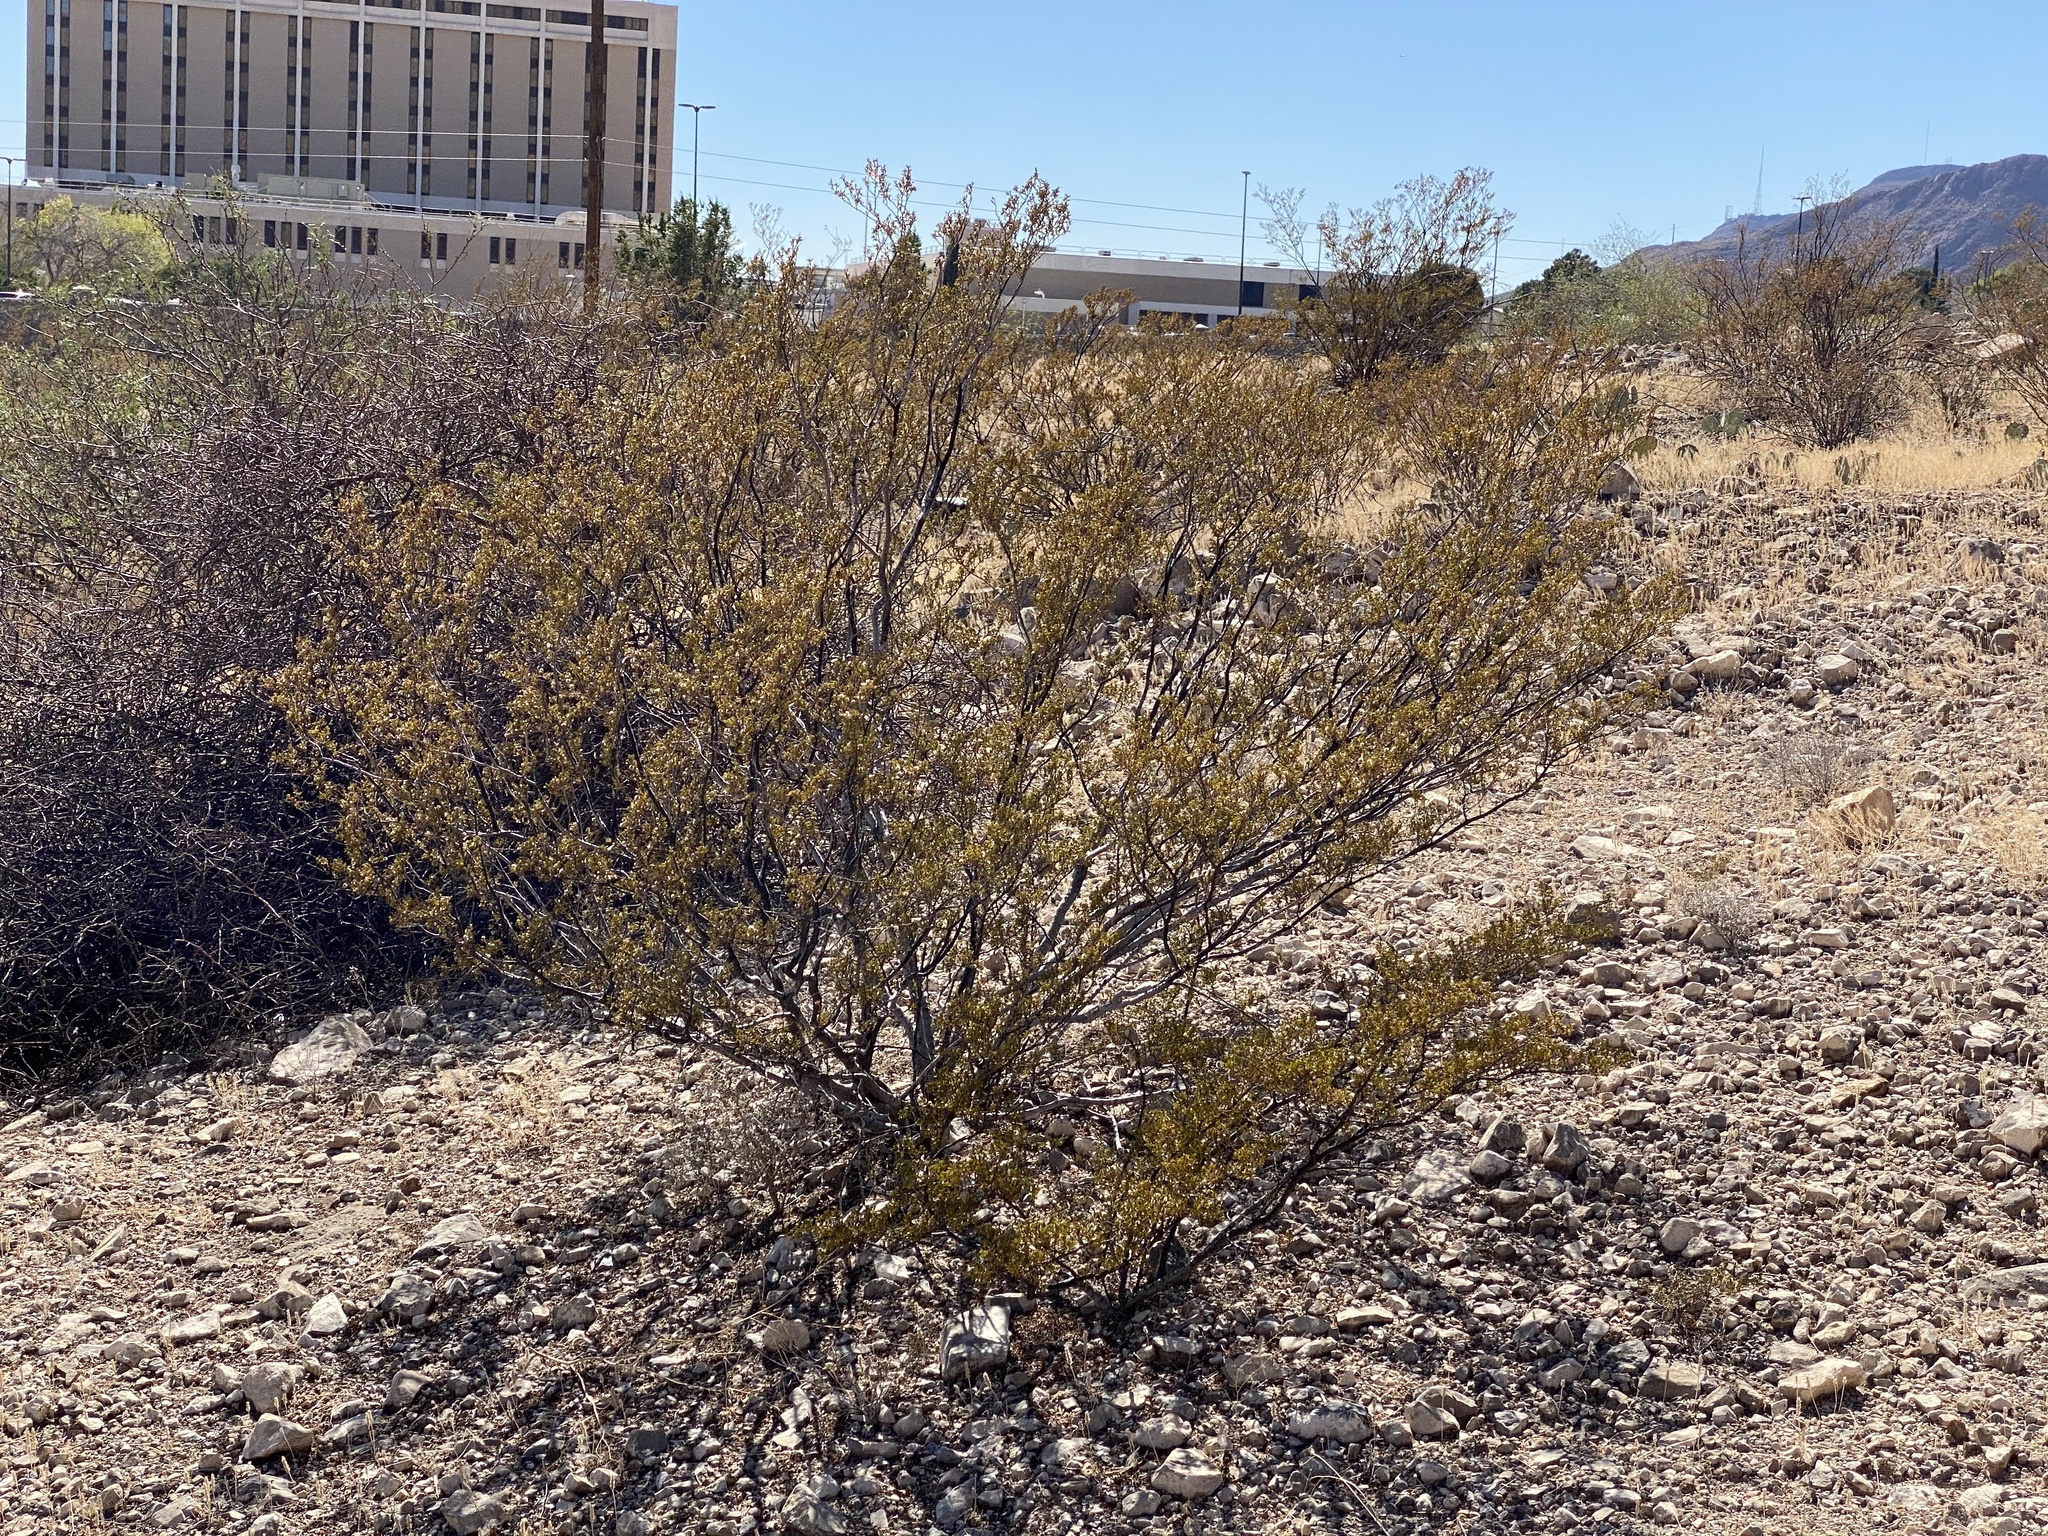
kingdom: Plantae
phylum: Tracheophyta
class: Magnoliopsida
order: Zygophyllales
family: Zygophyllaceae
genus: Larrea
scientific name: Larrea tridentata
